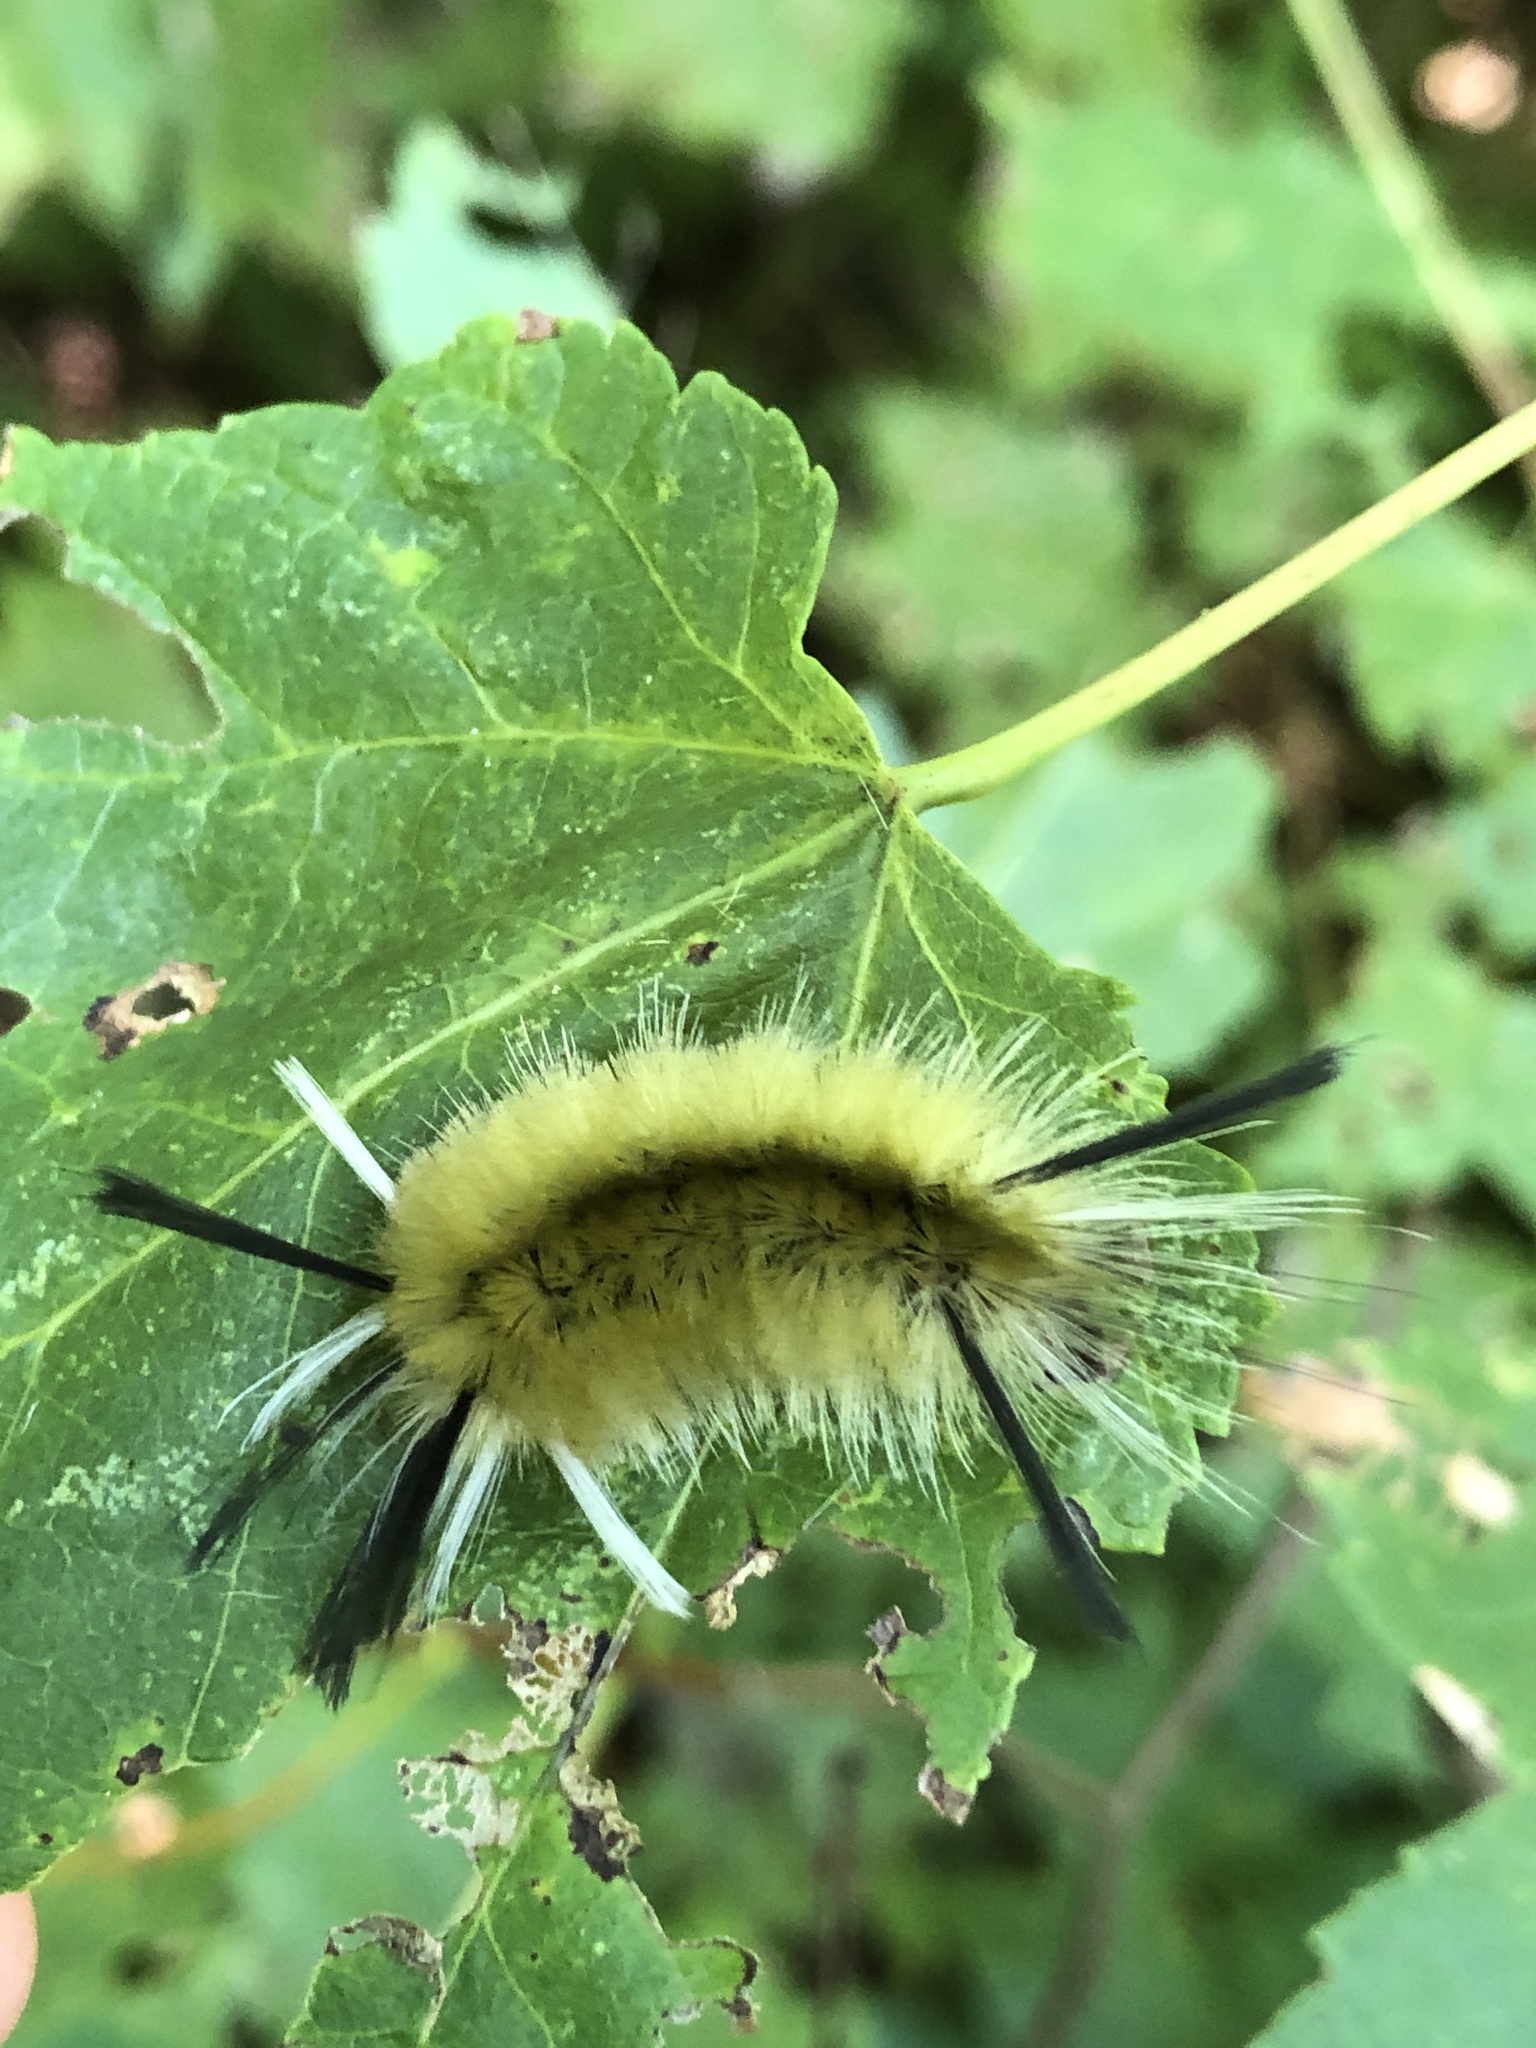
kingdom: Animalia
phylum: Arthropoda
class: Insecta
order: Lepidoptera
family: Erebidae
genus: Halysidota
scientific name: Halysidota tessellaris
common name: Banded tussock moth
